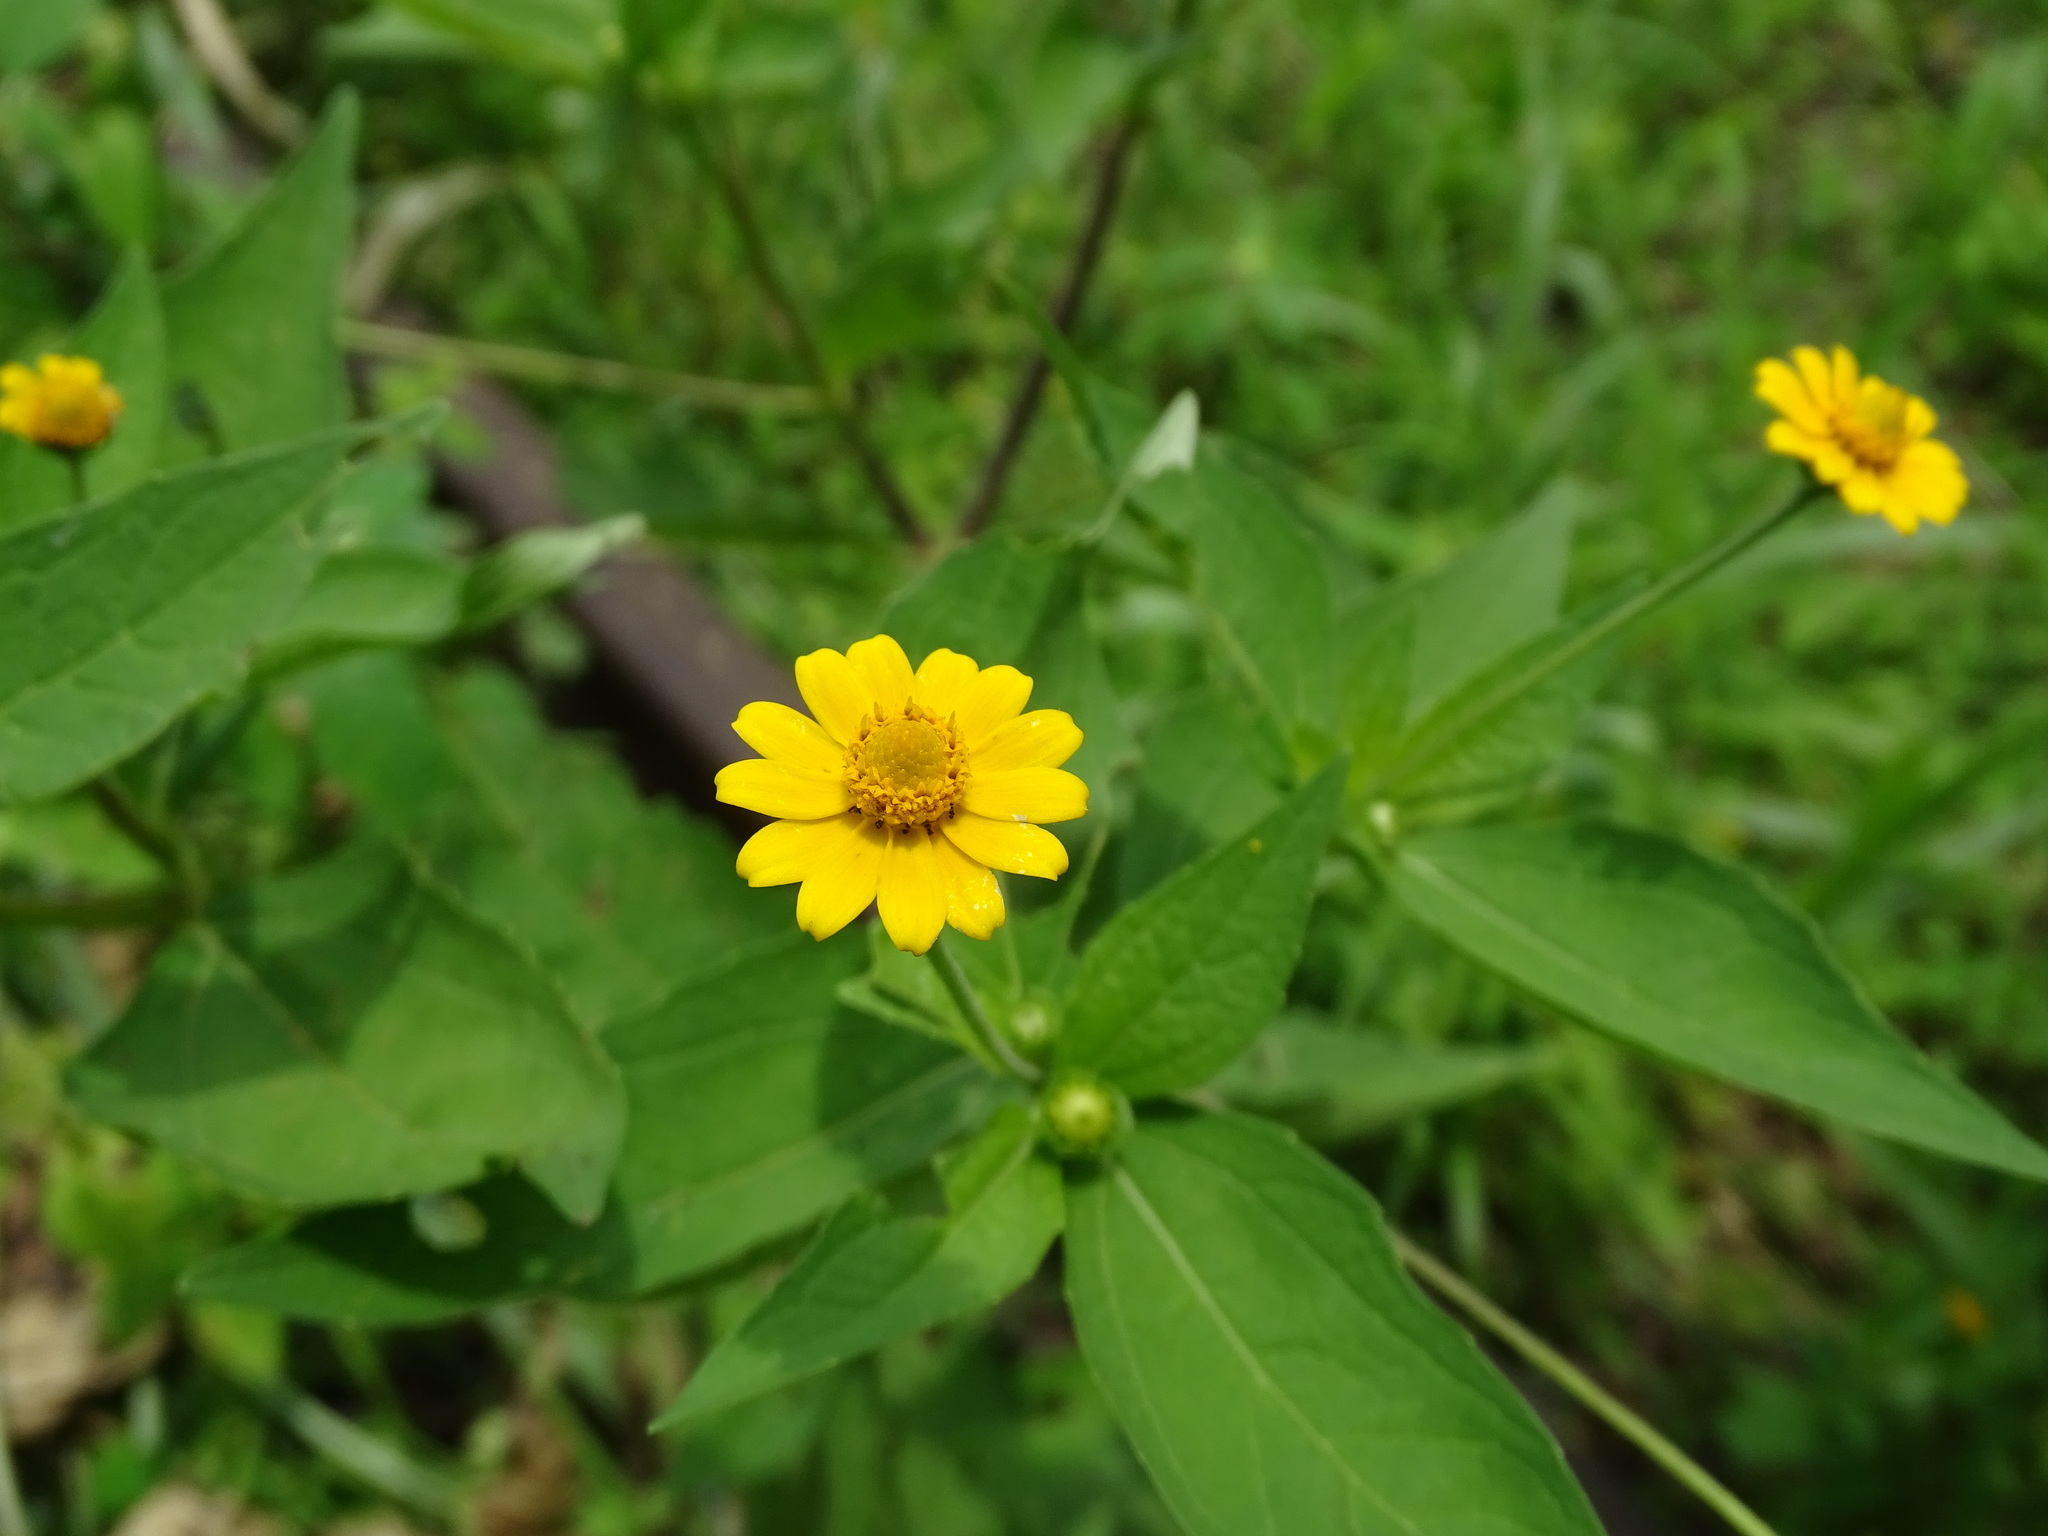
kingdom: Plantae
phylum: Tracheophyta
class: Magnoliopsida
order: Asterales
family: Asteraceae
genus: Melampodium
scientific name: Melampodium divaricatum
